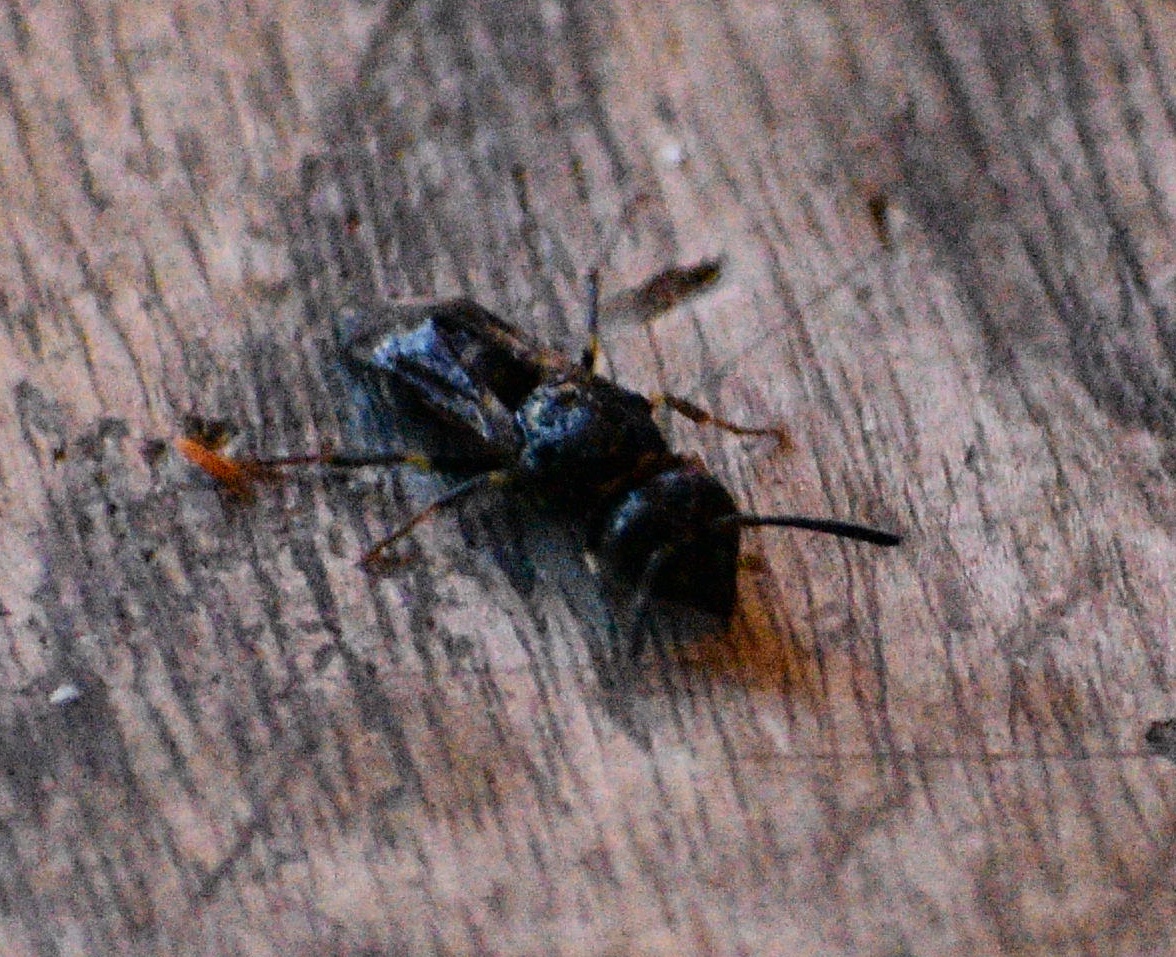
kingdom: Animalia
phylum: Arthropoda
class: Insecta
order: Hymenoptera
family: Vespidae
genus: Ancistrocerus
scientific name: Ancistrocerus
